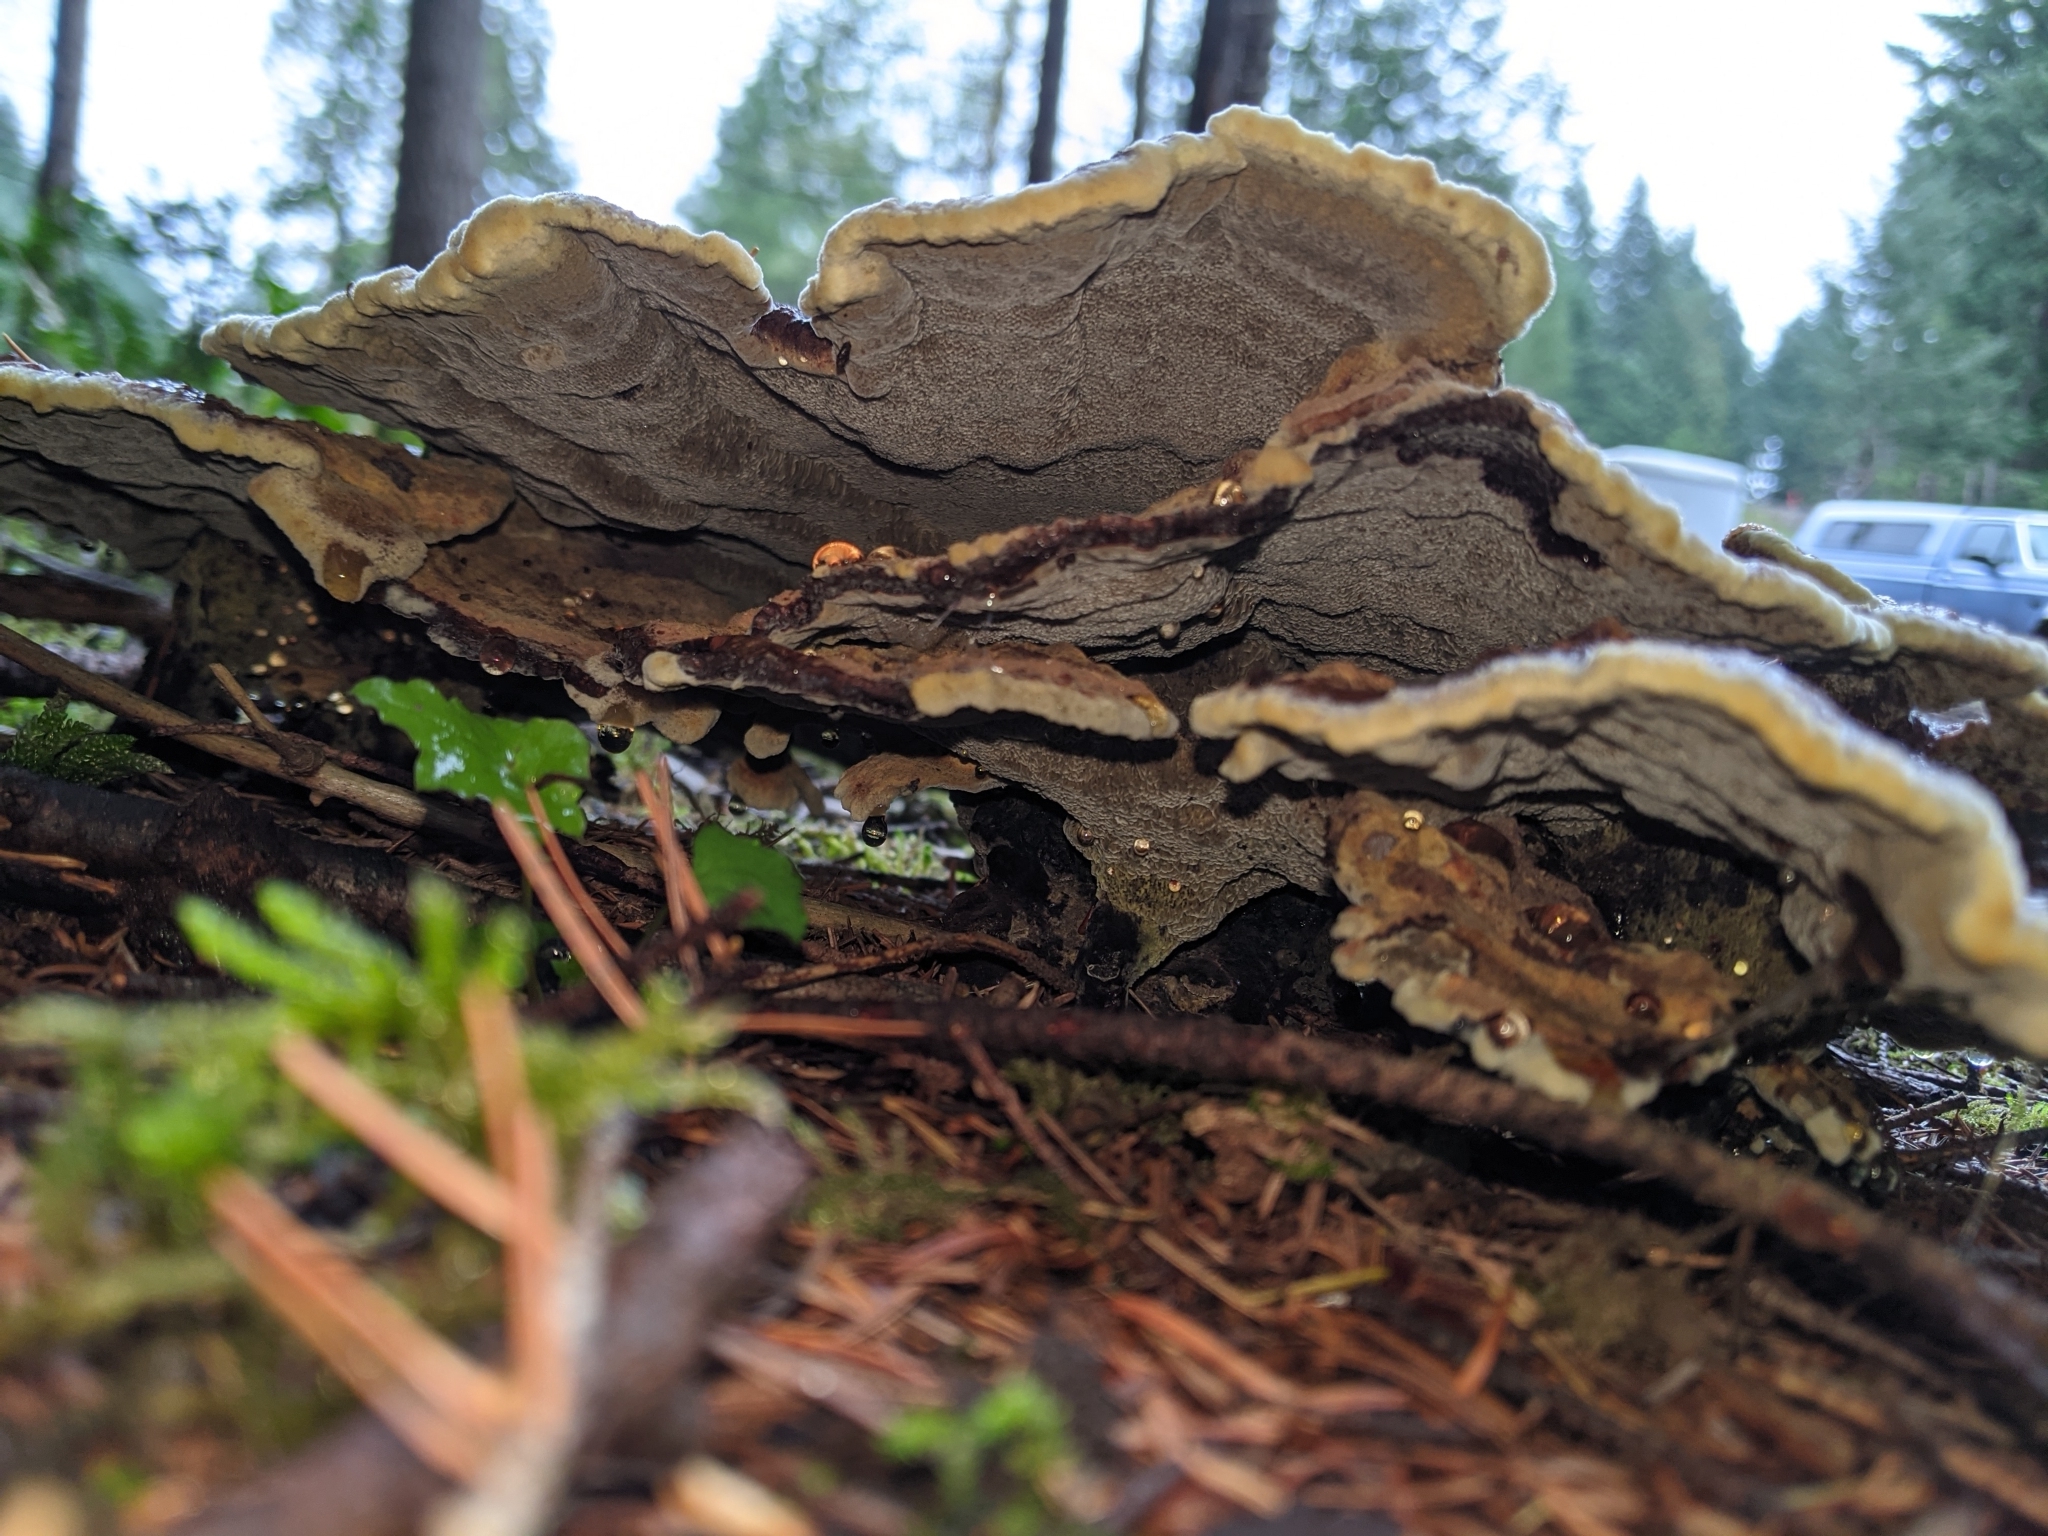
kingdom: Fungi
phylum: Basidiomycota
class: Agaricomycetes
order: Polyporales
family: Laetiporaceae
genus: Phaeolus
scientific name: Phaeolus schweinitzii
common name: Dyer's mazegill
